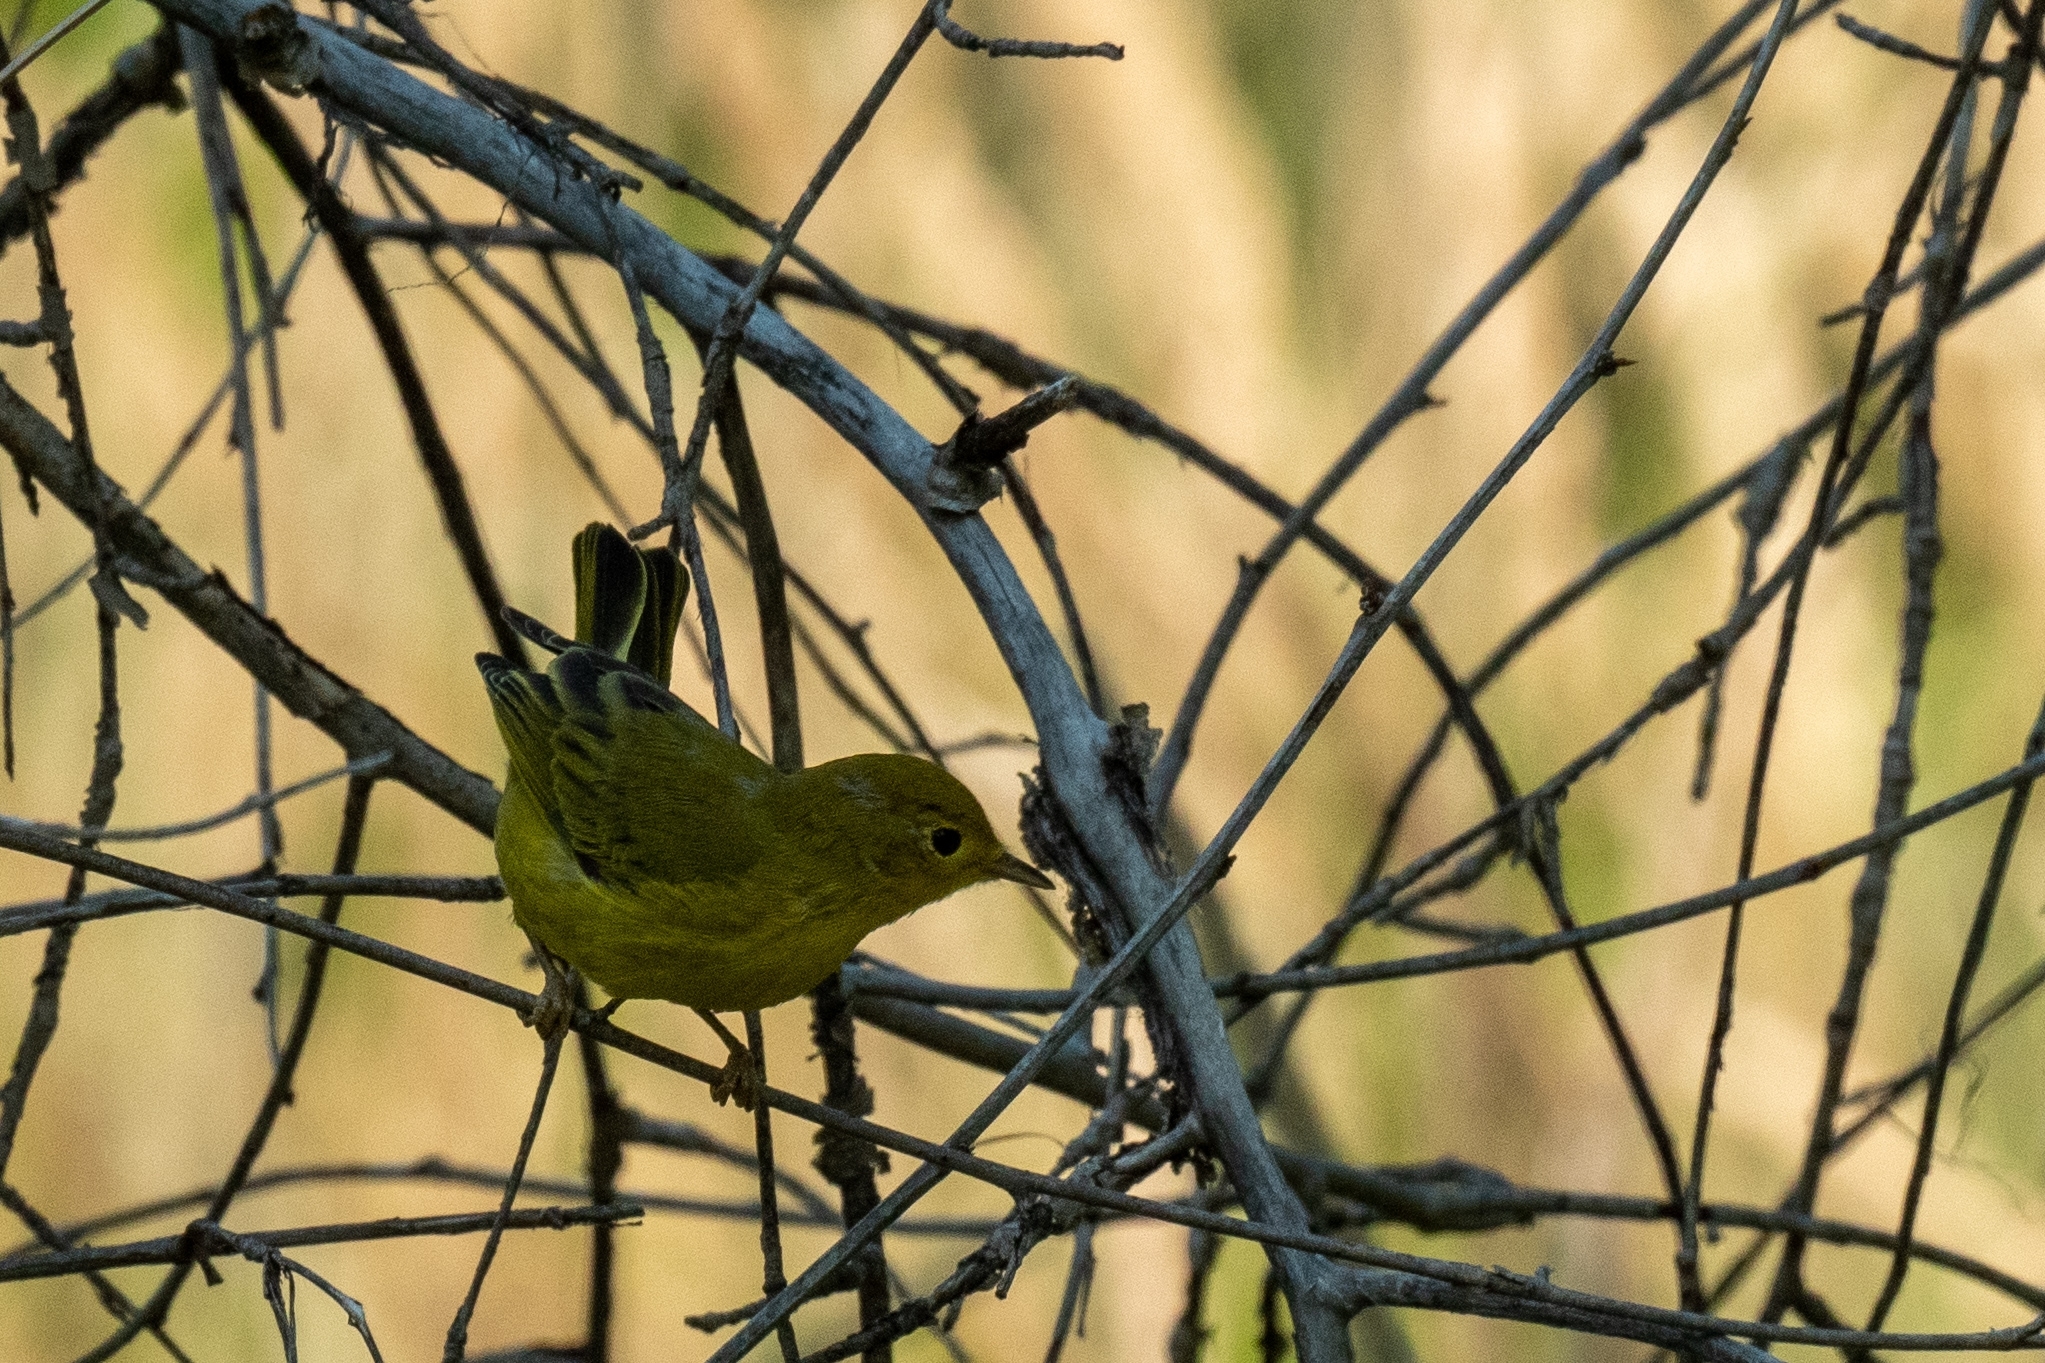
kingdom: Animalia
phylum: Chordata
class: Aves
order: Passeriformes
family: Parulidae
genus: Setophaga
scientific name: Setophaga petechia
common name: Yellow warbler
